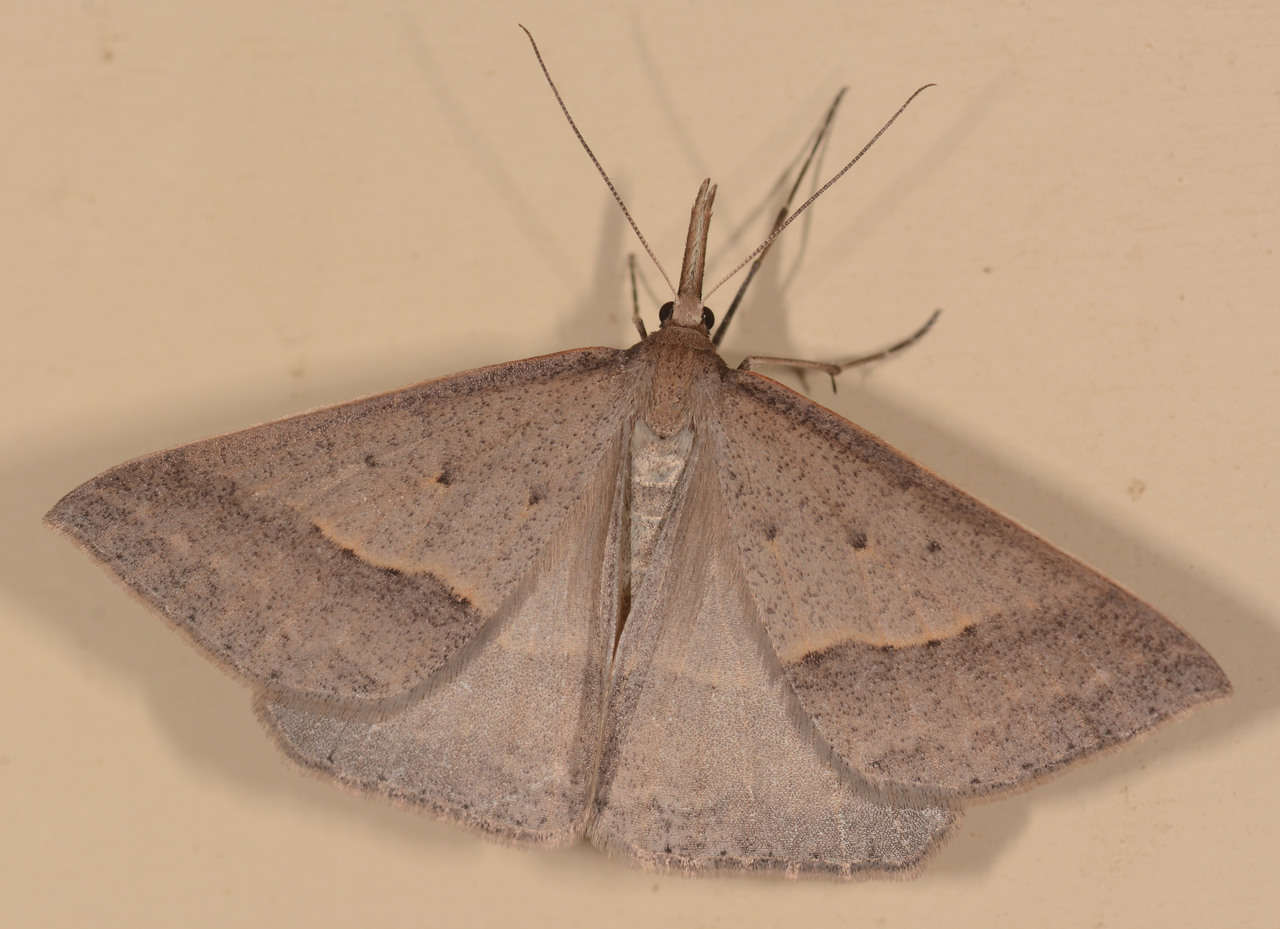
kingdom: Animalia
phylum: Arthropoda
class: Insecta
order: Lepidoptera
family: Geometridae
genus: Epidesmia
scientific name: Epidesmia hypenaria
